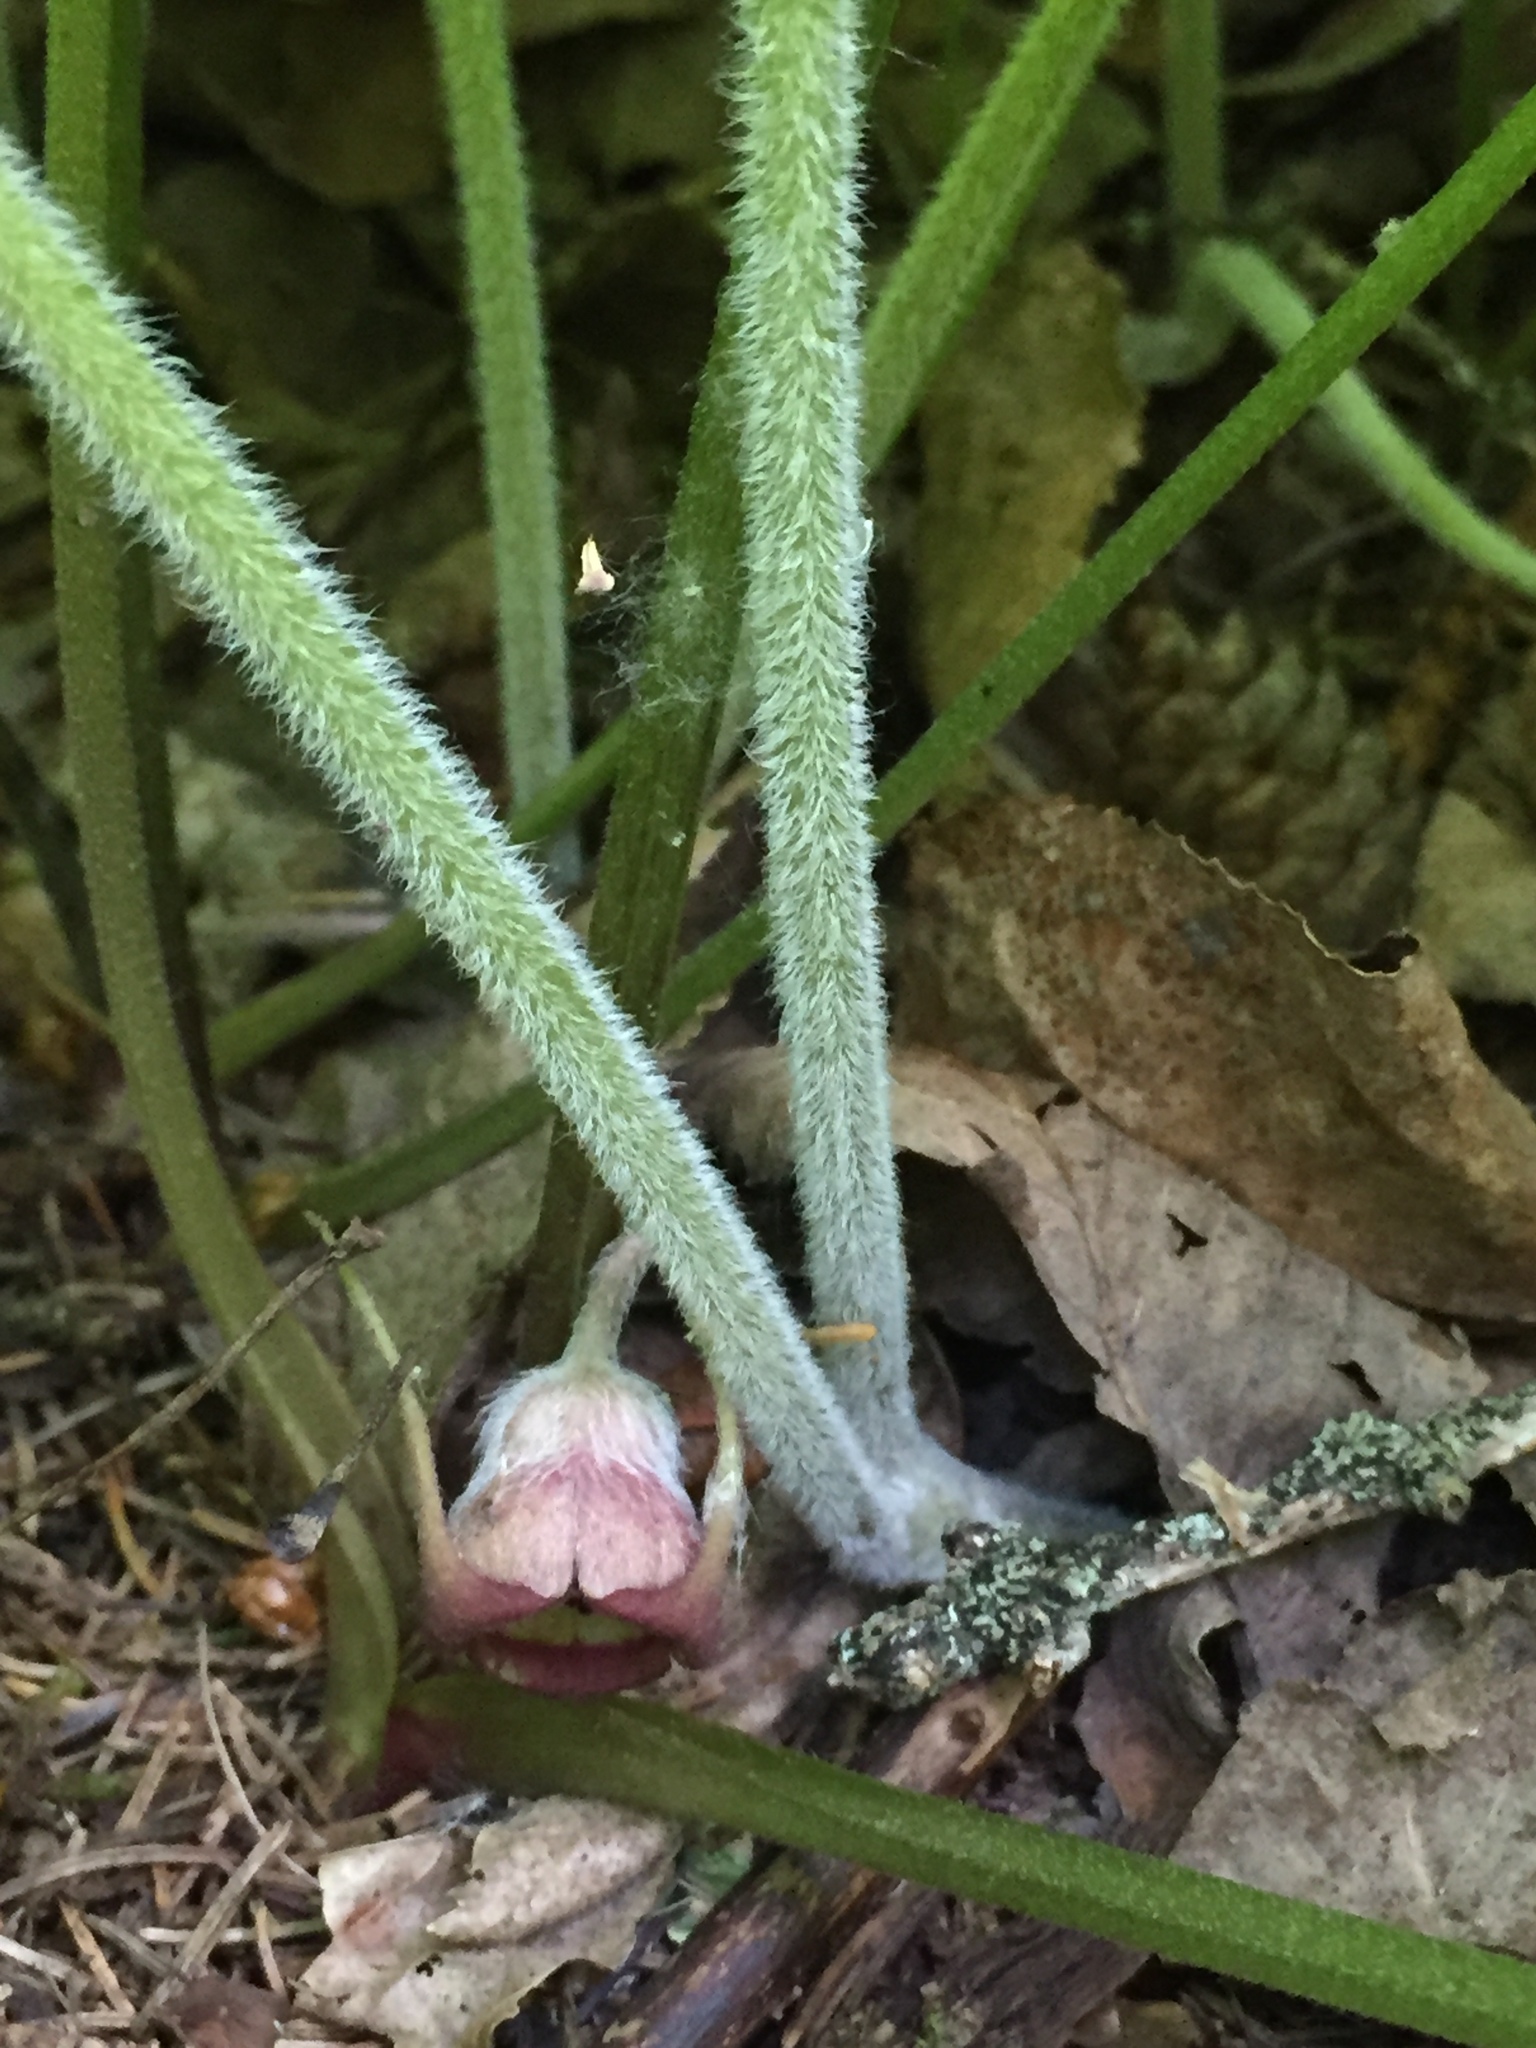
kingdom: Plantae
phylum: Tracheophyta
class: Magnoliopsida
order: Piperales
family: Aristolochiaceae
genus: Asarum
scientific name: Asarum canadense
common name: Wild ginger
